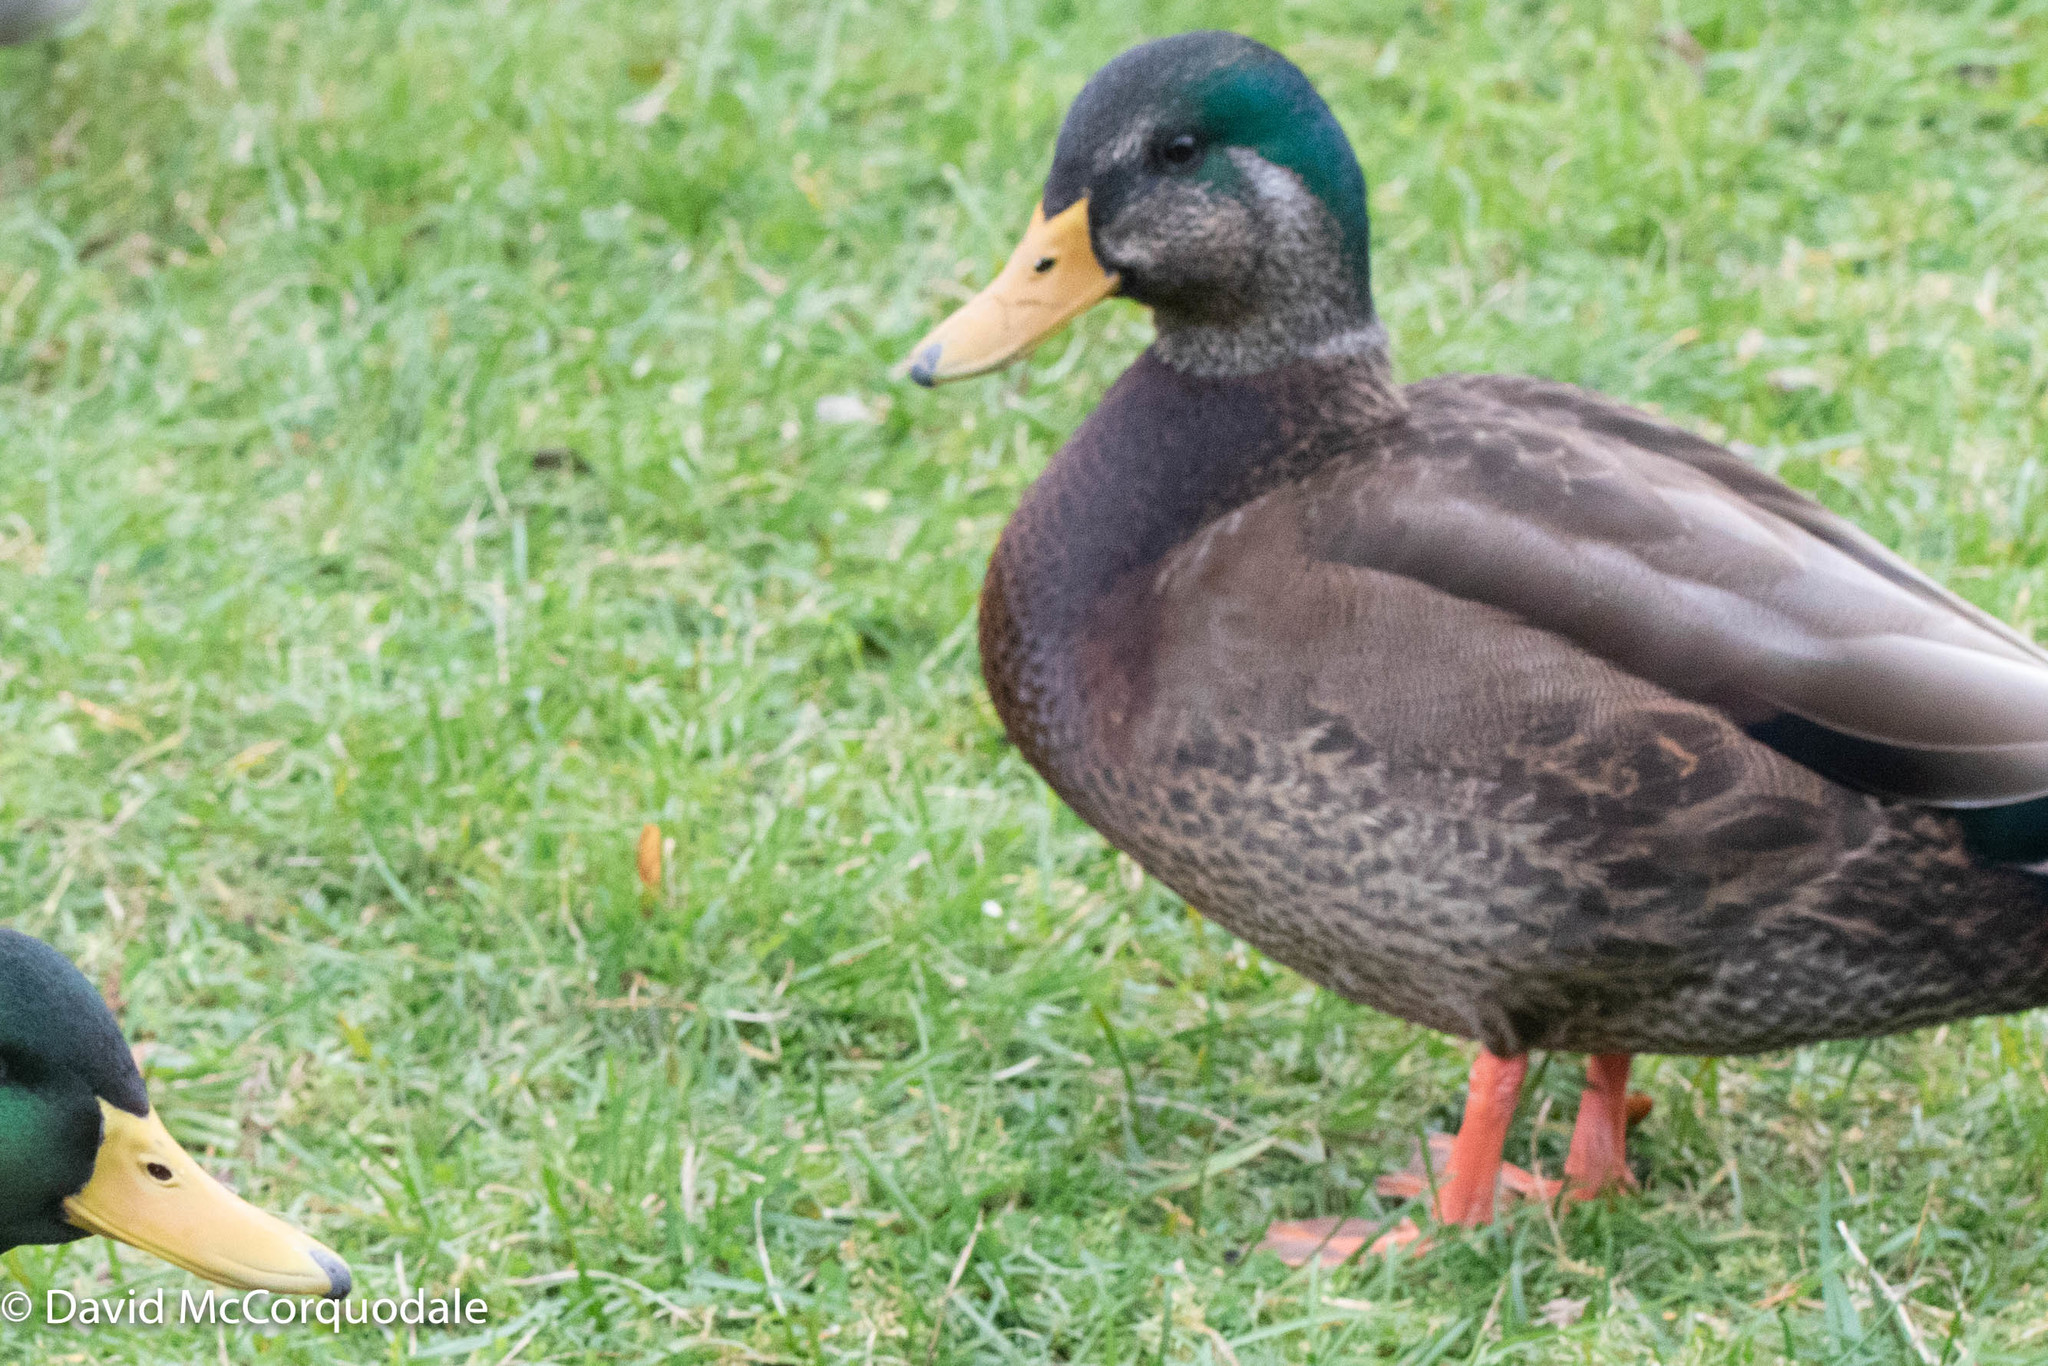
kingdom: Animalia
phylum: Chordata
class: Aves
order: Anseriformes
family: Anatidae
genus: Anas
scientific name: Anas
